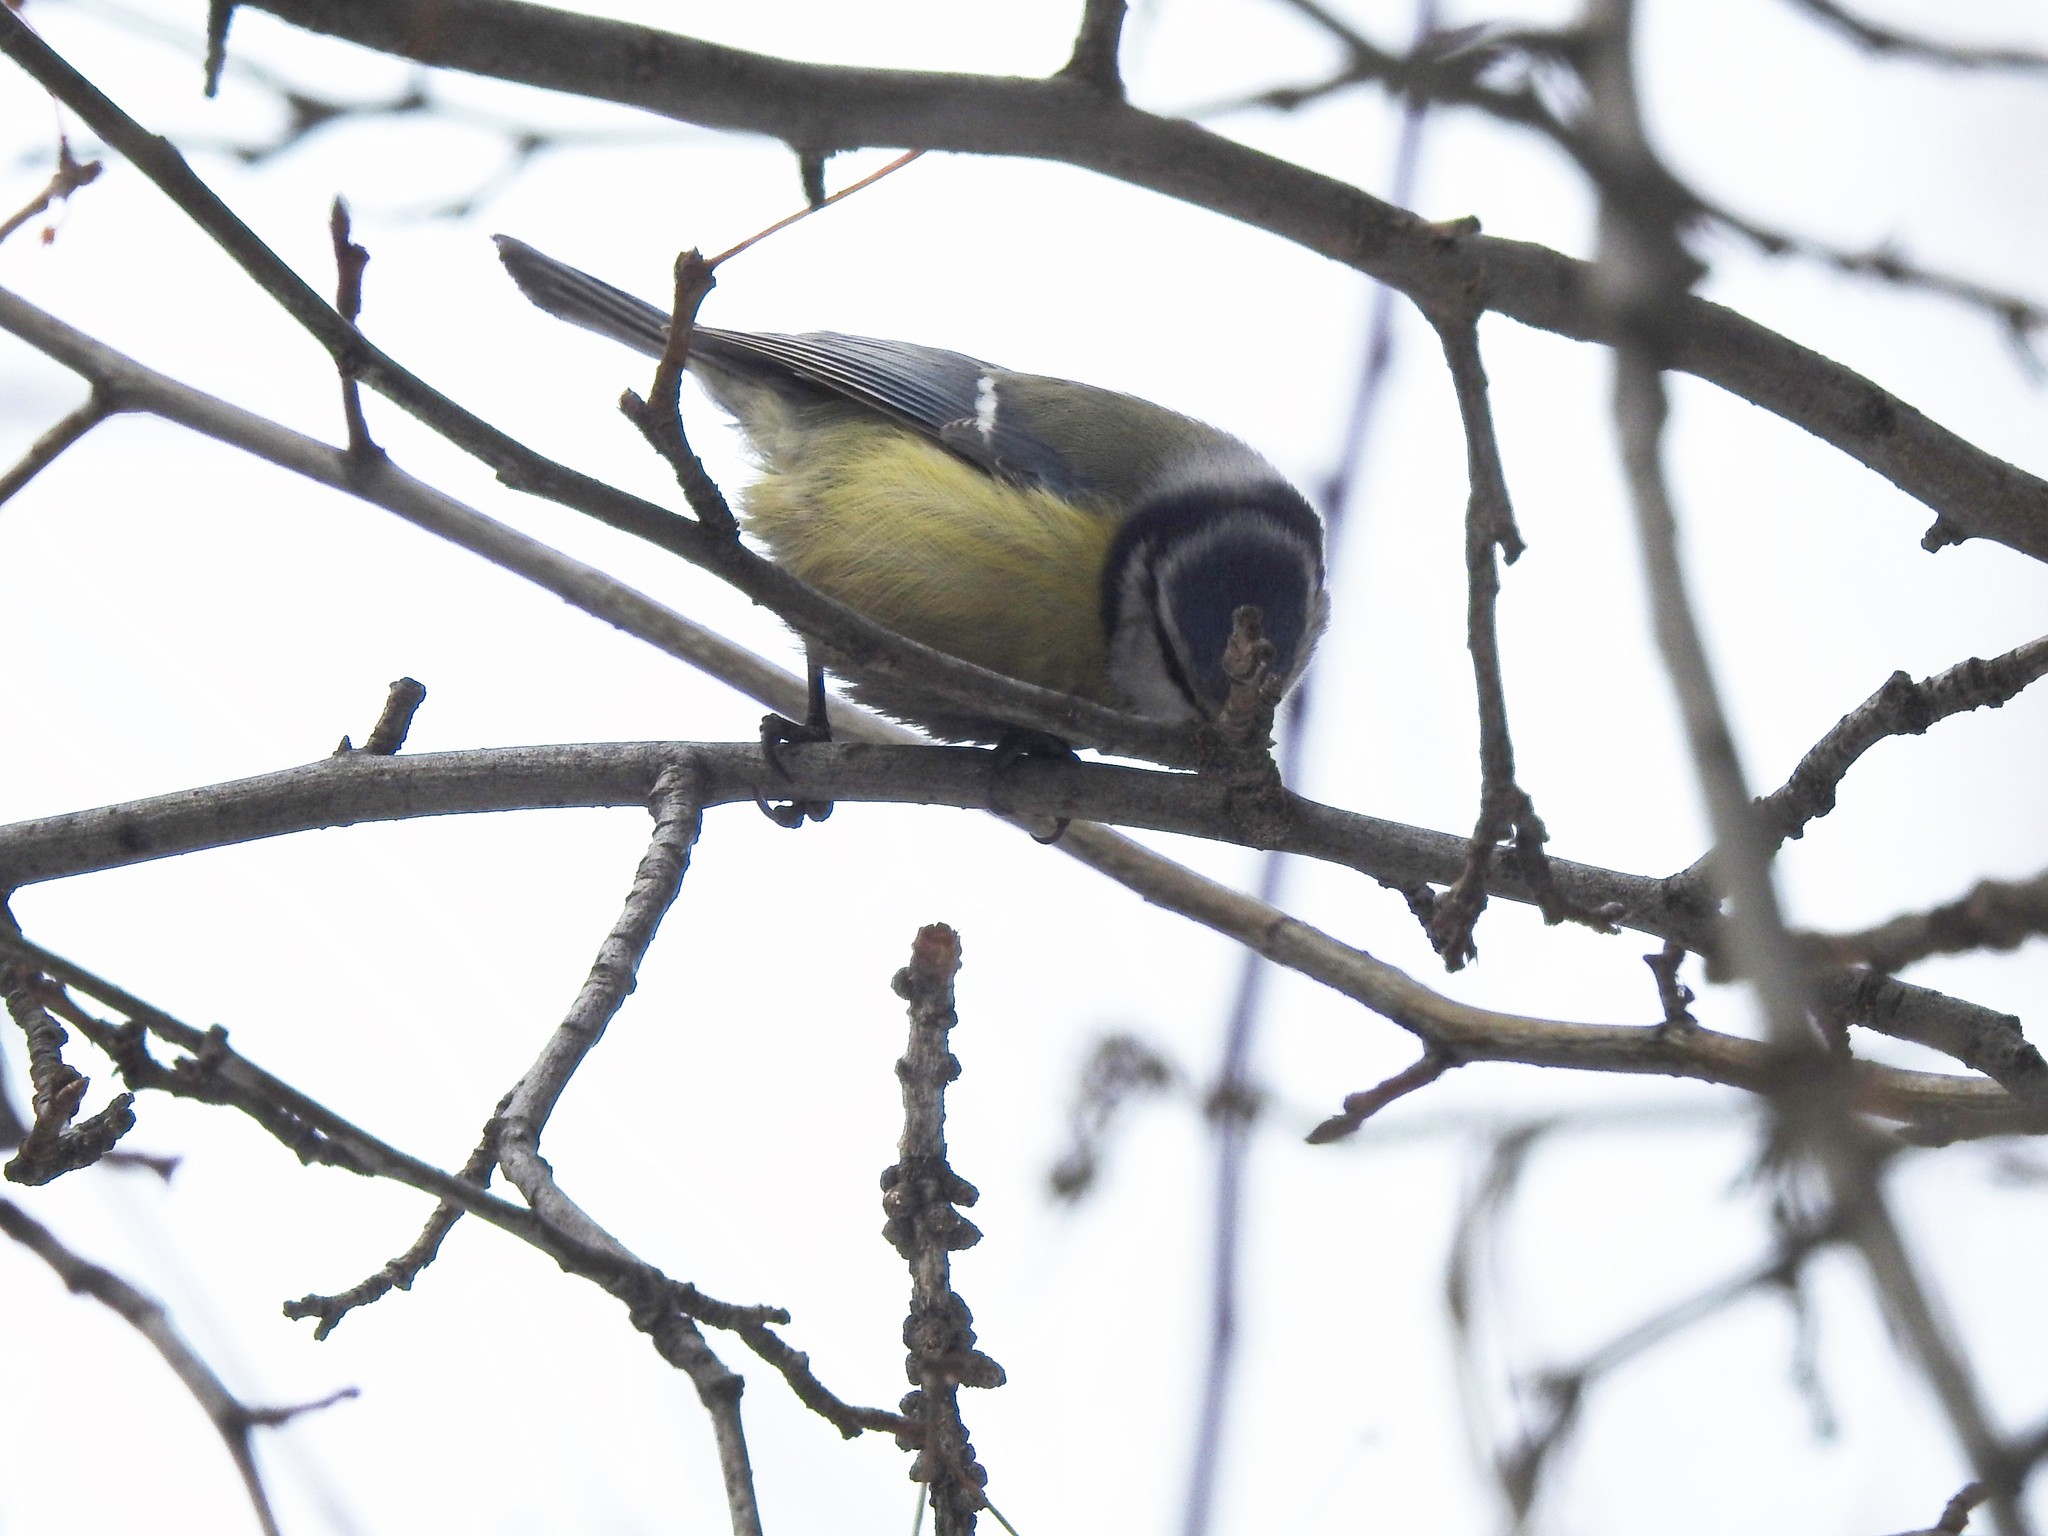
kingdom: Animalia
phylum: Chordata
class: Aves
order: Passeriformes
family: Paridae
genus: Cyanistes
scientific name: Cyanistes caeruleus
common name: Eurasian blue tit
